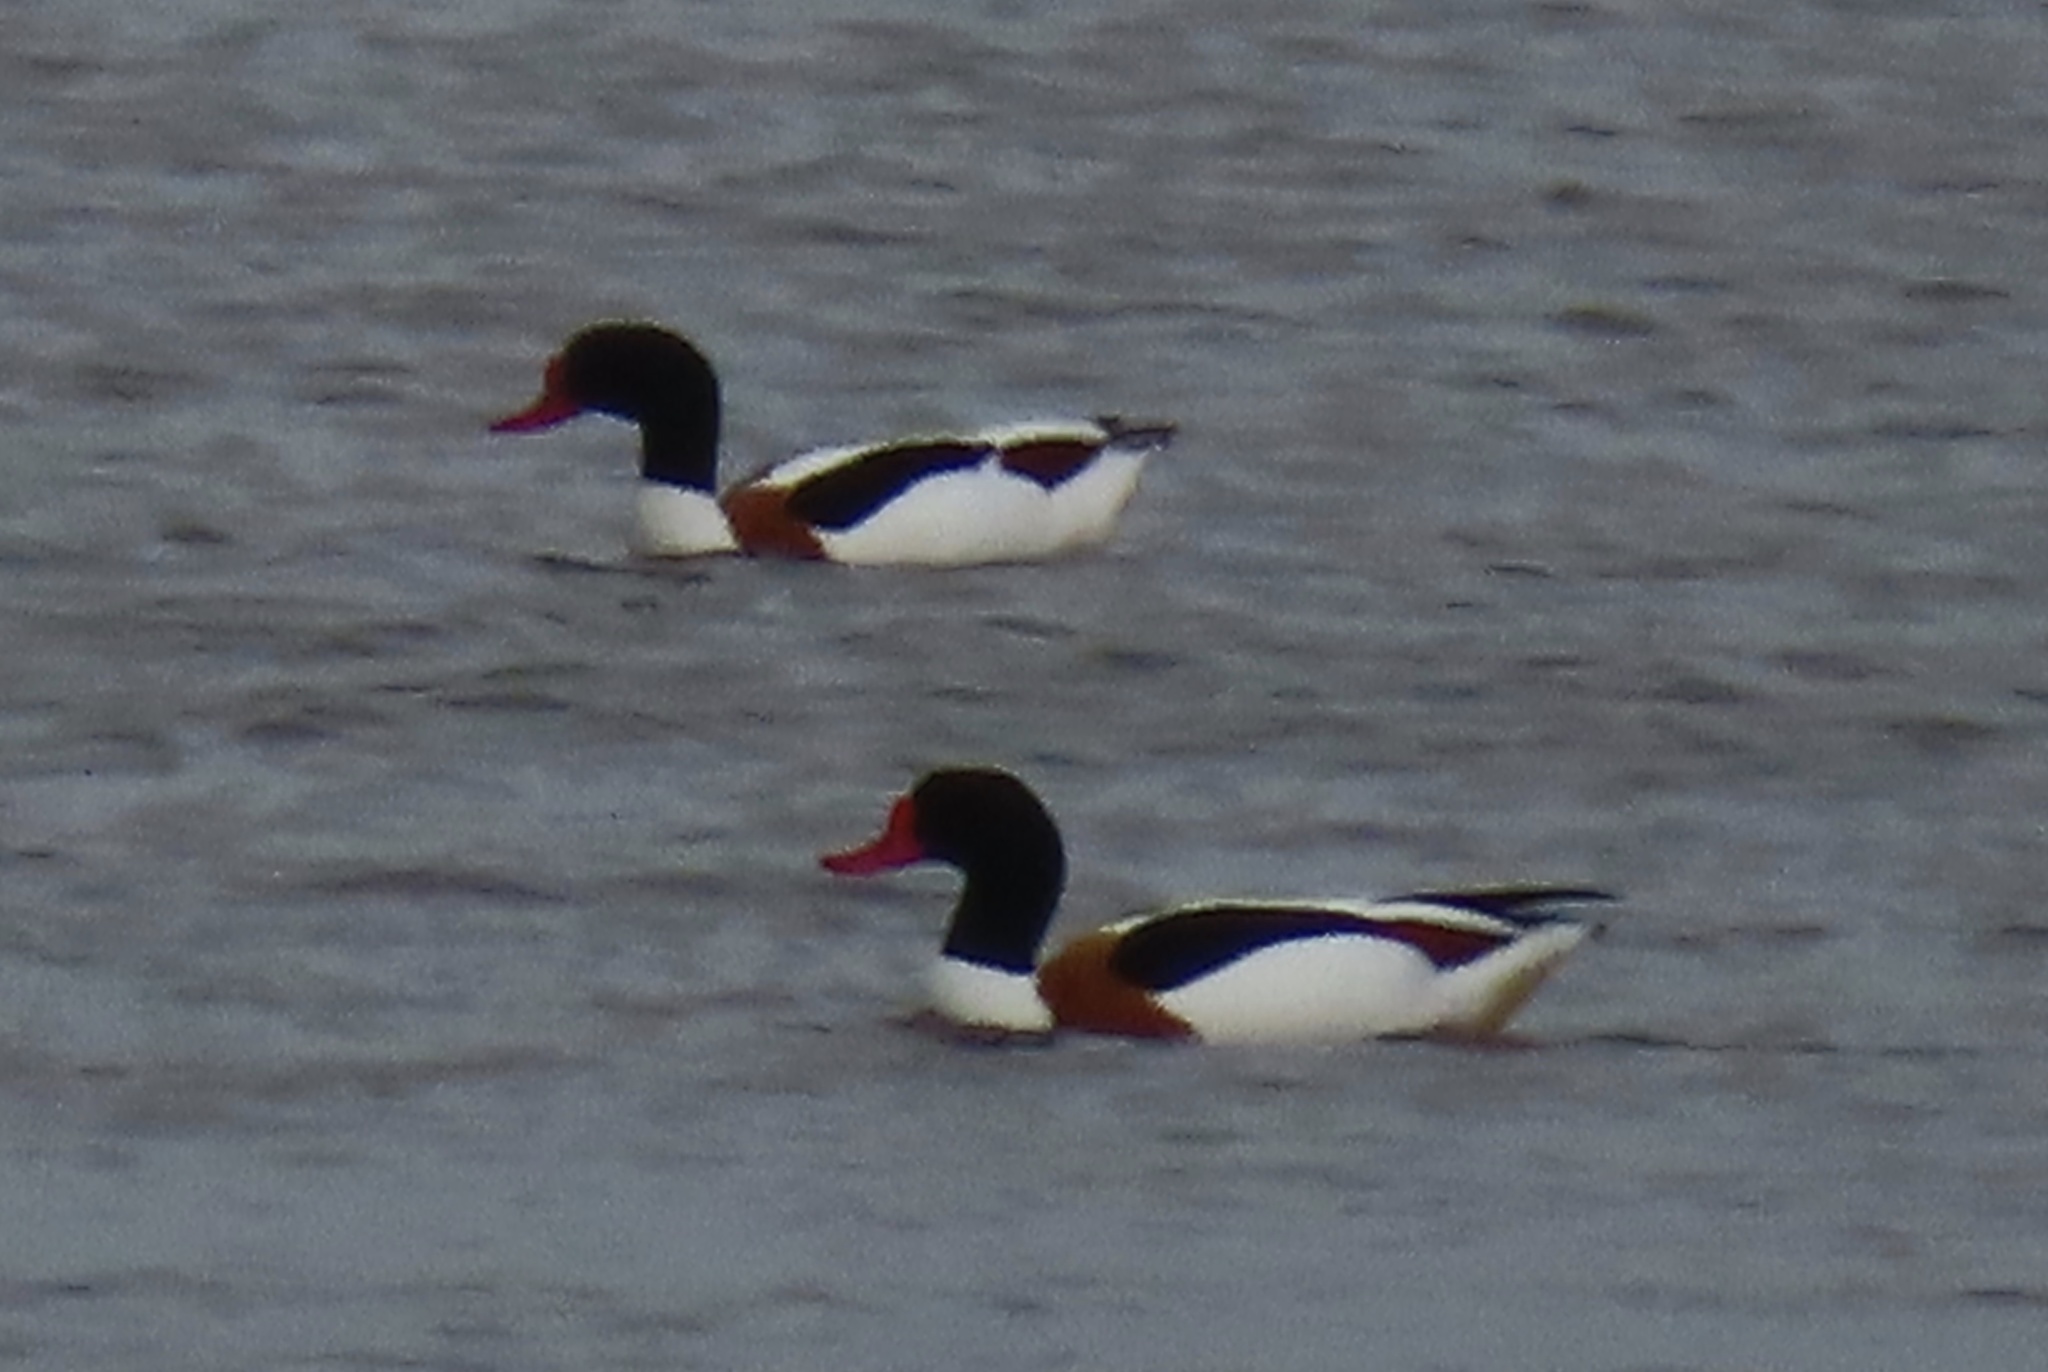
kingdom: Animalia
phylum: Chordata
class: Aves
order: Anseriformes
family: Anatidae
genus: Tadorna
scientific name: Tadorna tadorna
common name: Common shelduck
